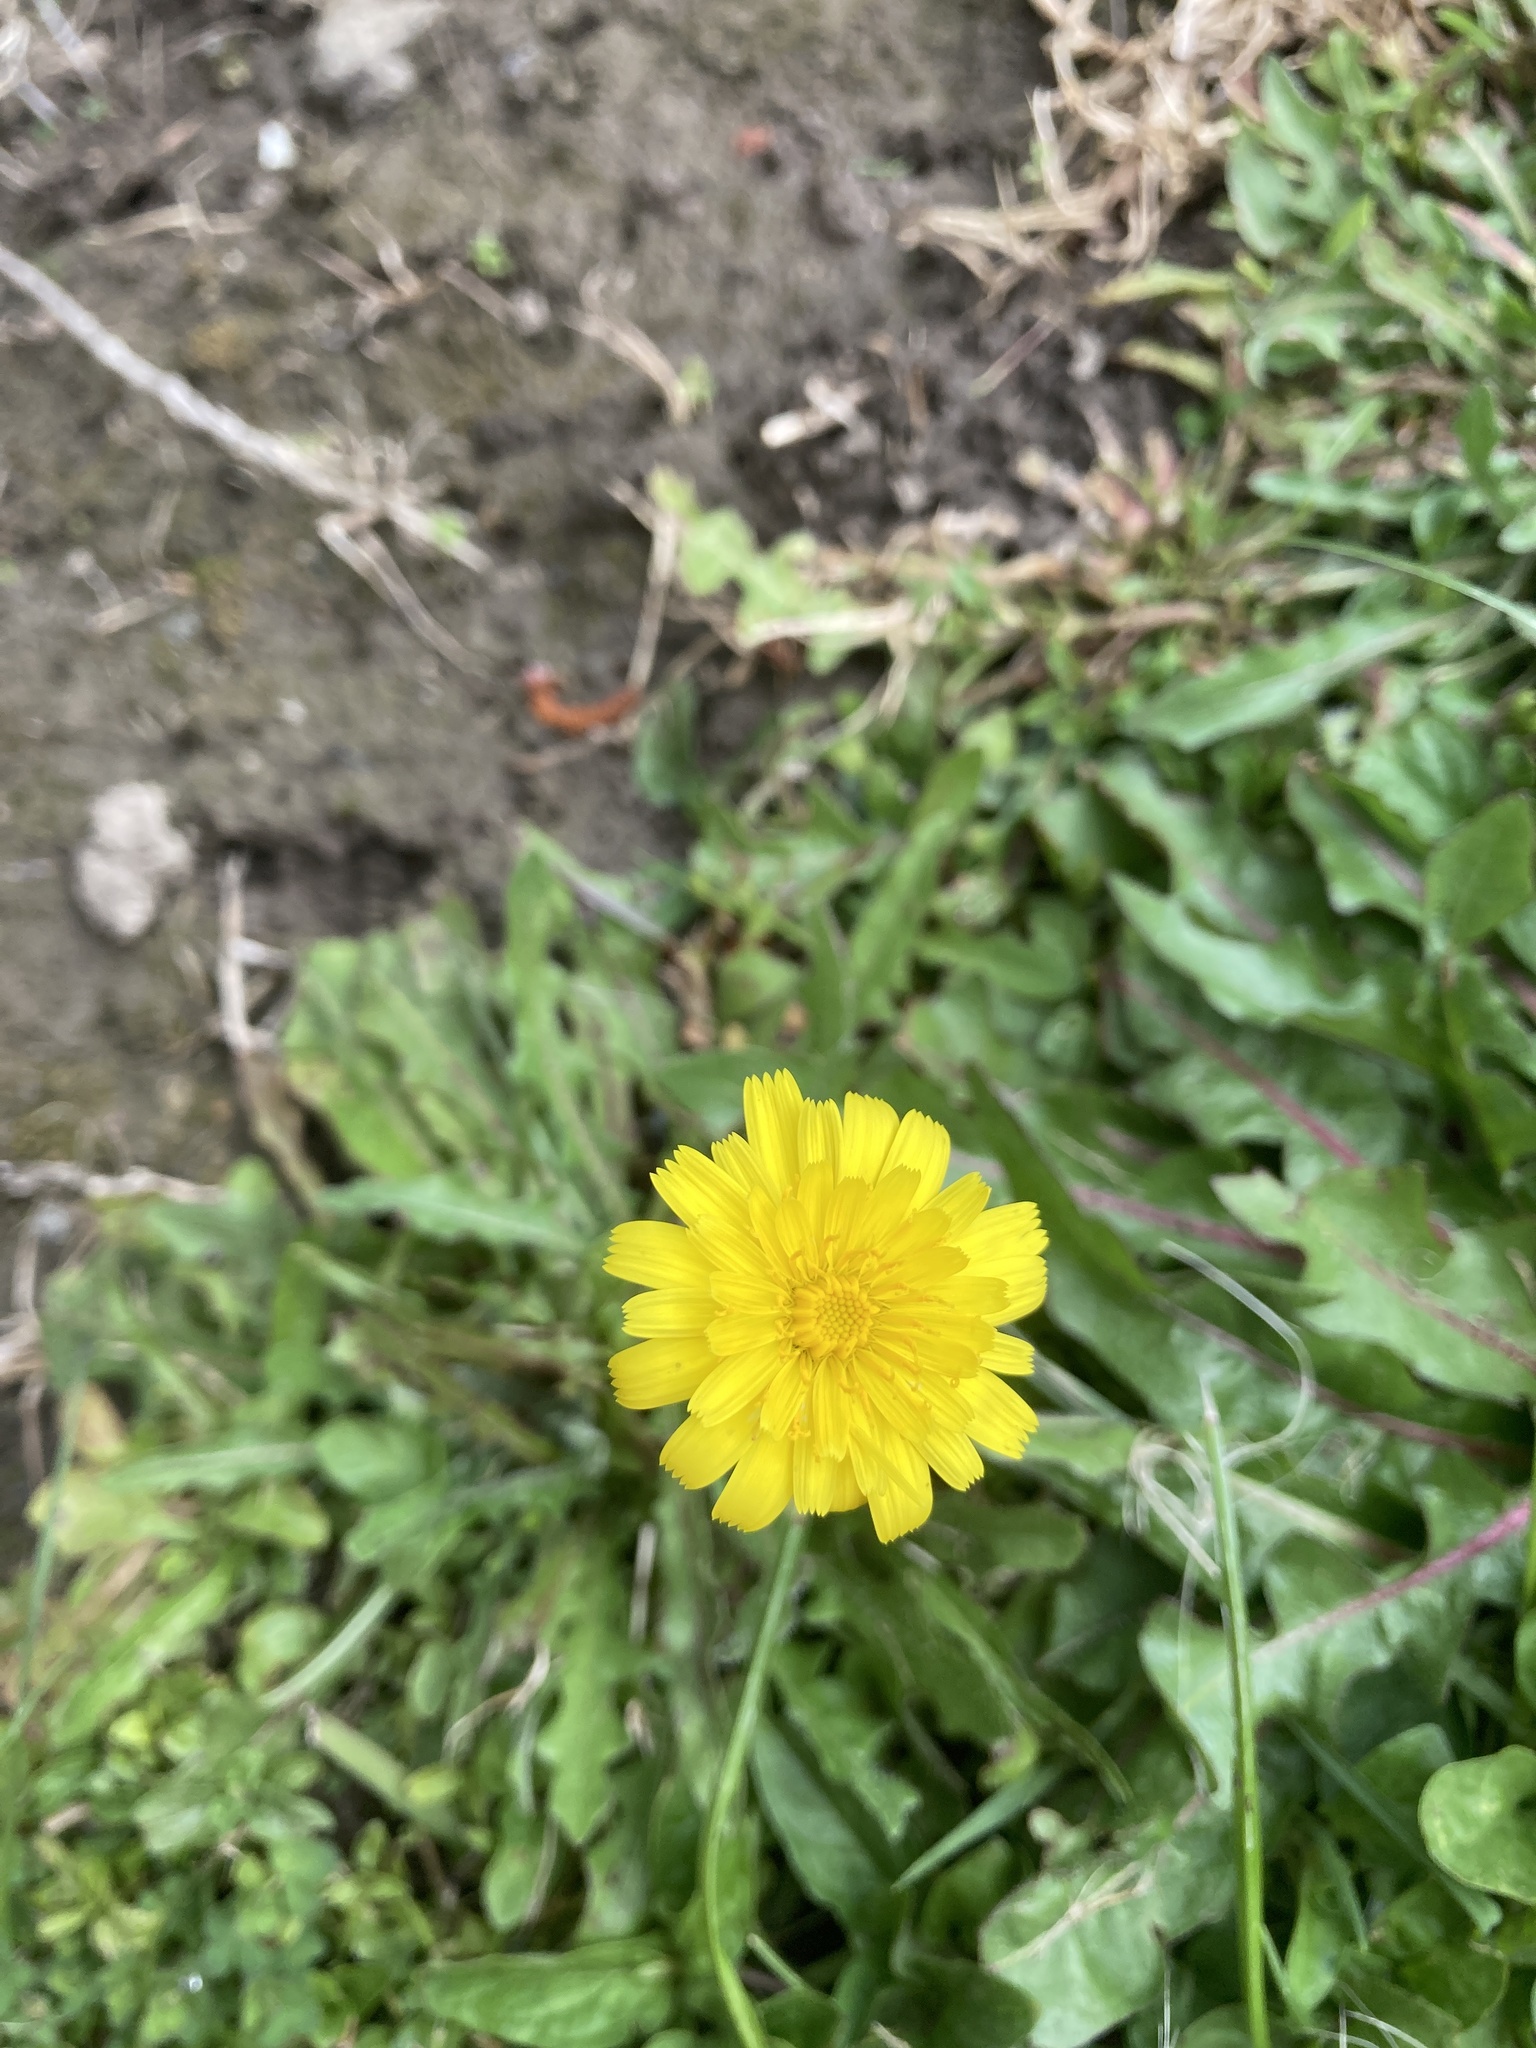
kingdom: Plantae
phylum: Tracheophyta
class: Magnoliopsida
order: Asterales
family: Asteraceae
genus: Hypochaeris
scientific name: Hypochaeris radicata
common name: Flatweed
